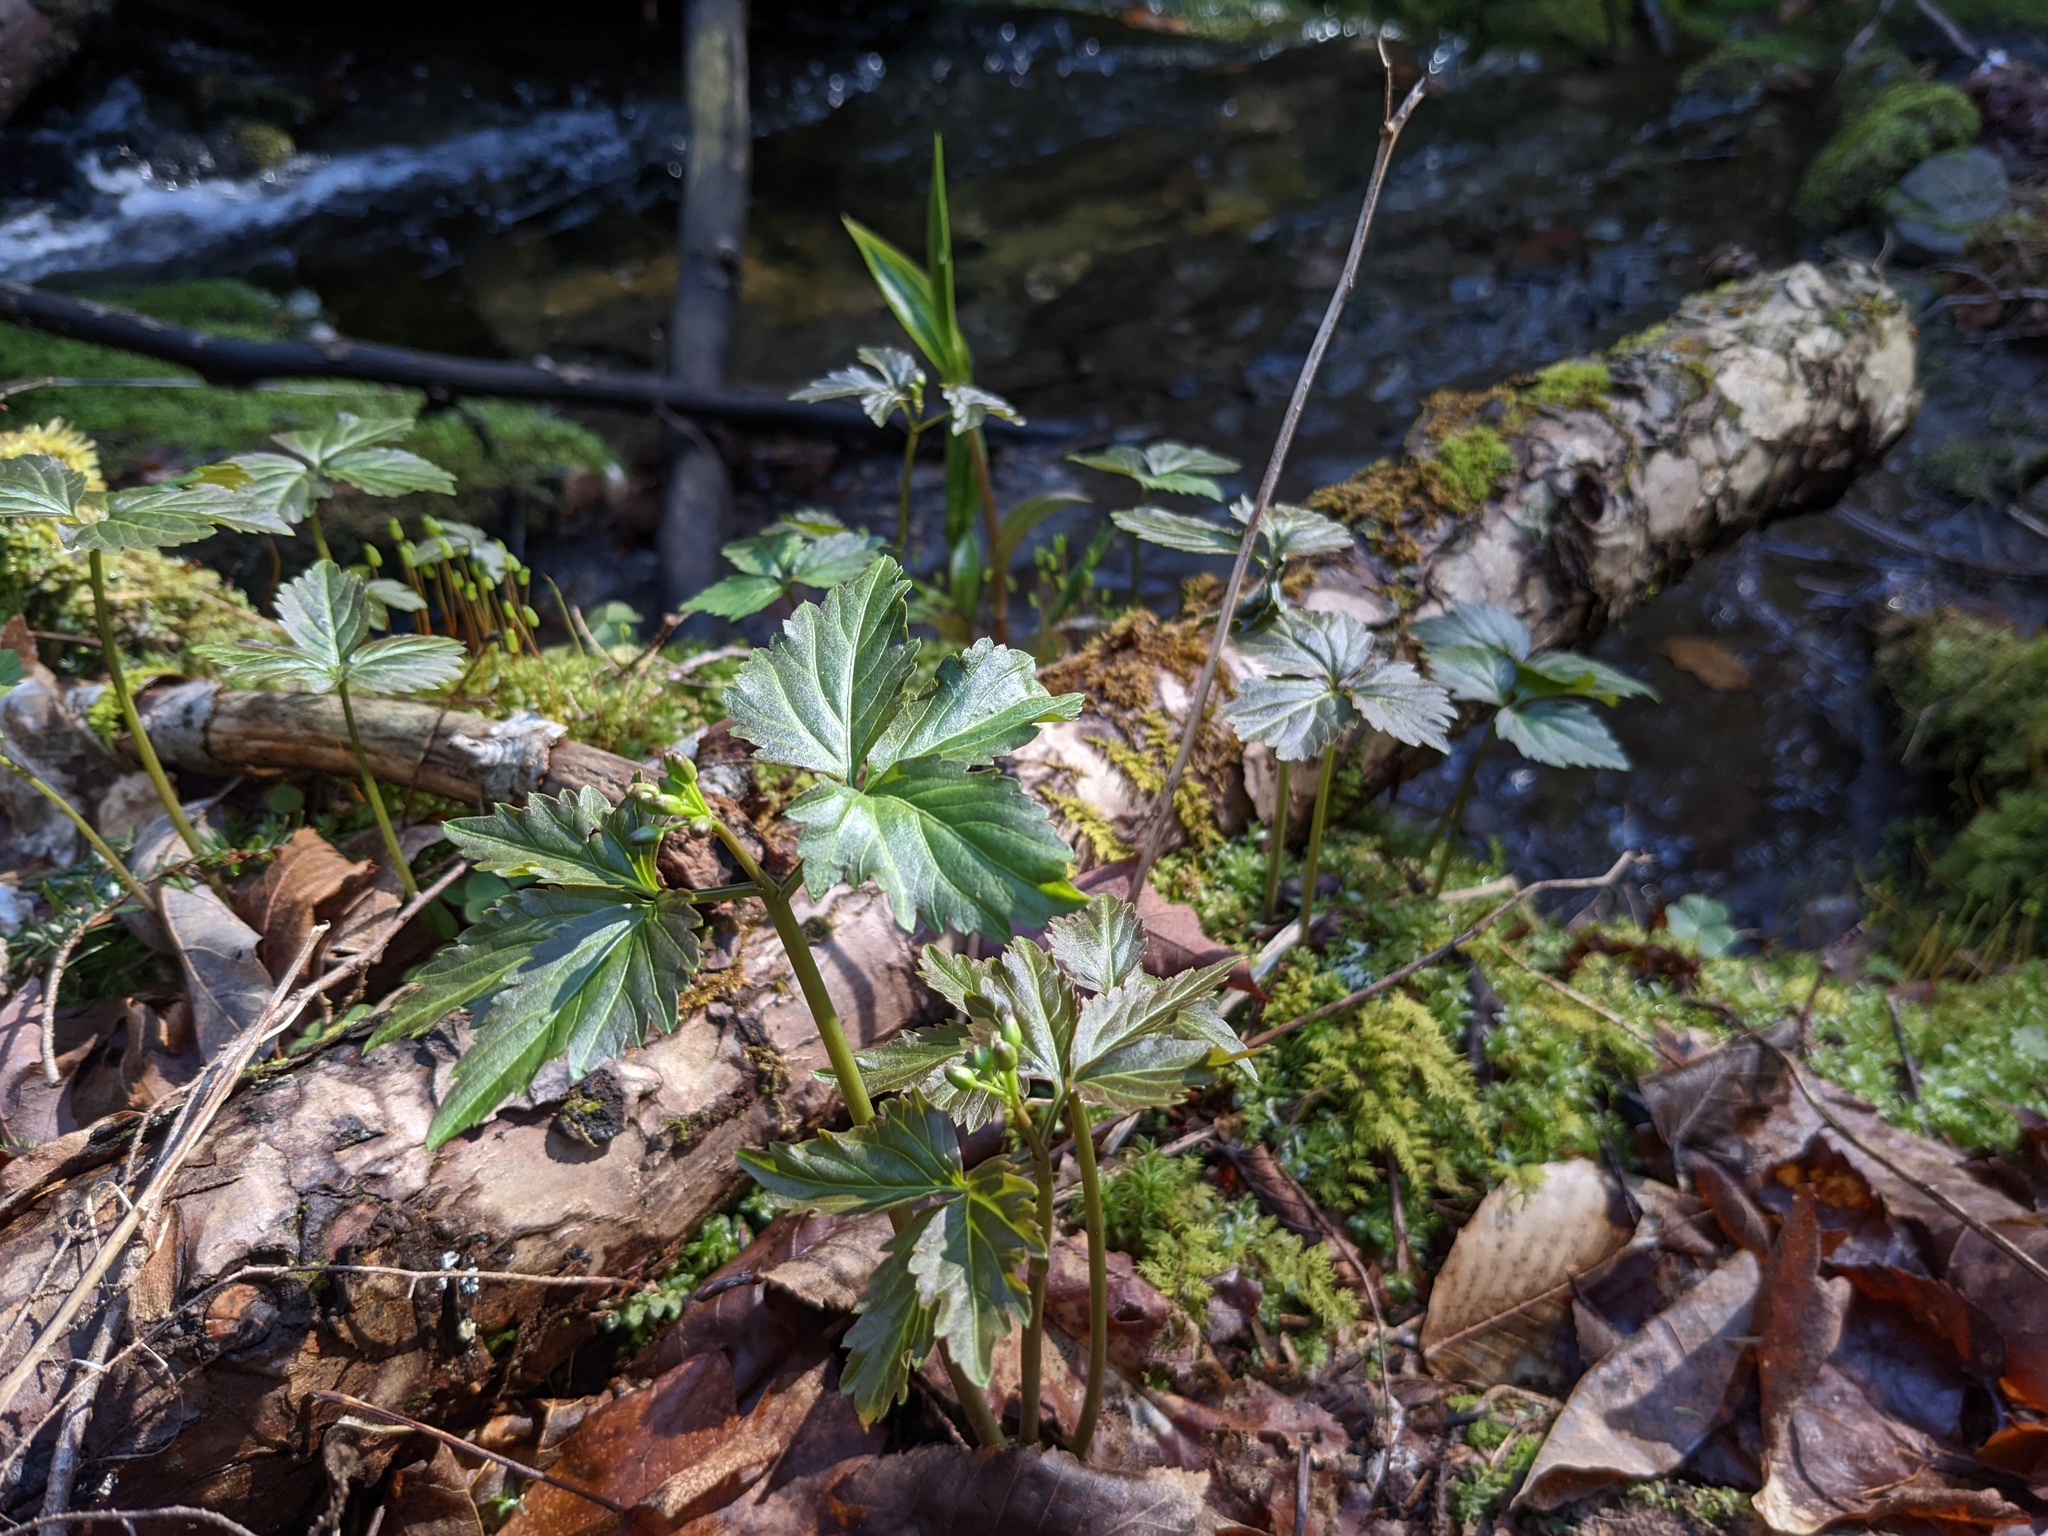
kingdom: Plantae
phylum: Tracheophyta
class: Magnoliopsida
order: Brassicales
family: Brassicaceae
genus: Cardamine
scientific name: Cardamine diphylla
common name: Broad-leaved toothwort
